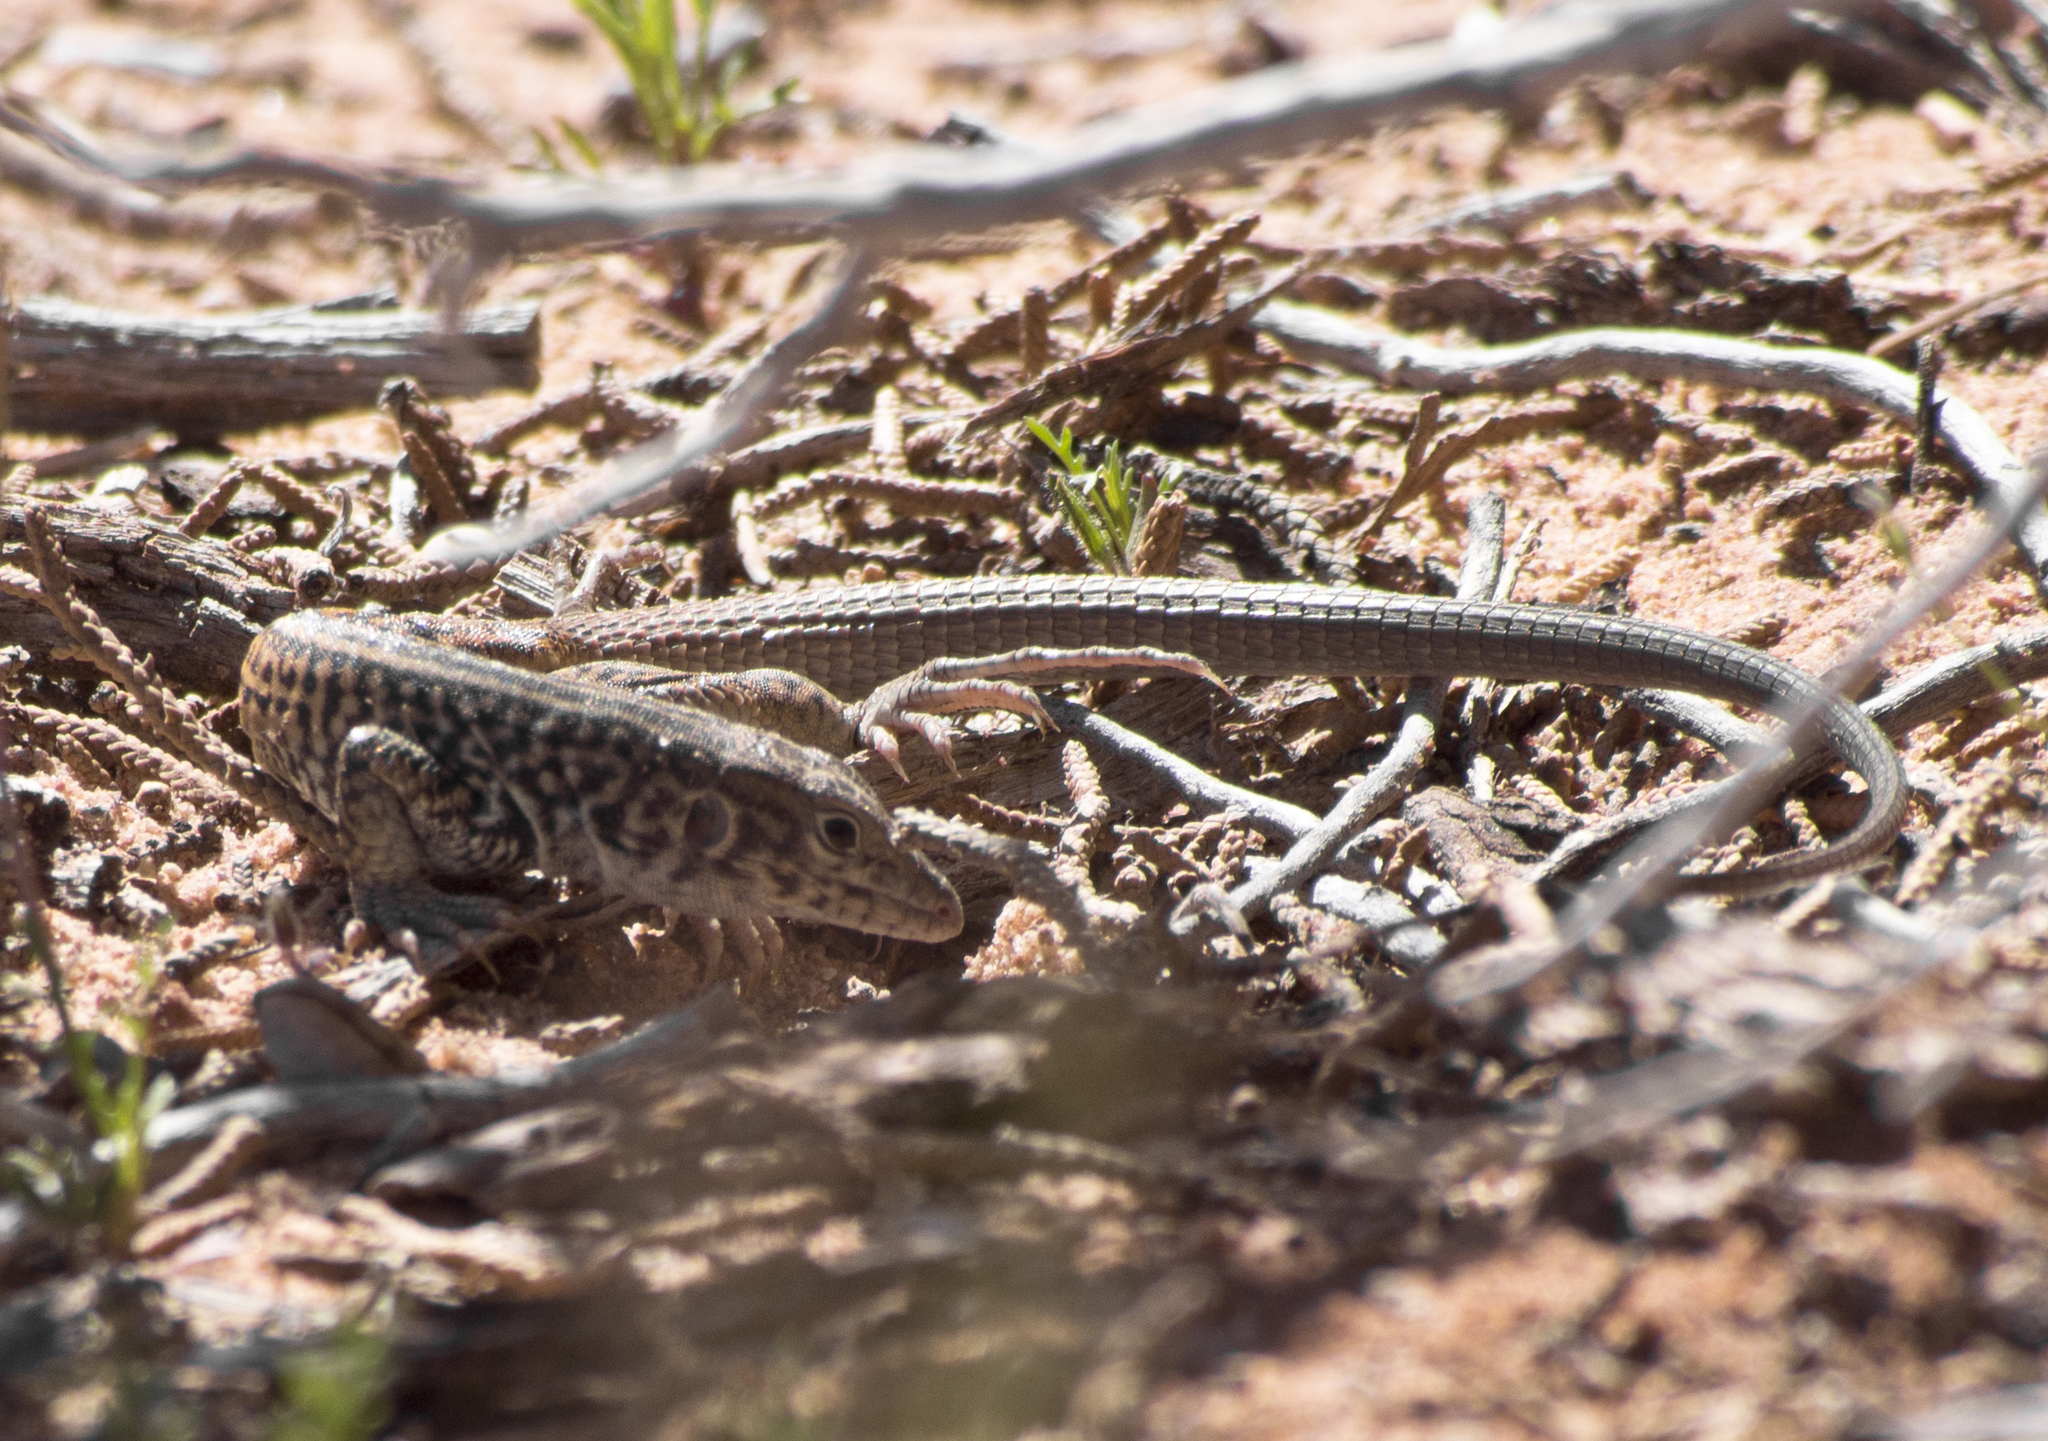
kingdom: Animalia
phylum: Chordata
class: Squamata
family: Teiidae
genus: Aspidoscelis
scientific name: Aspidoscelis tigris
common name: Tiger whiptail
